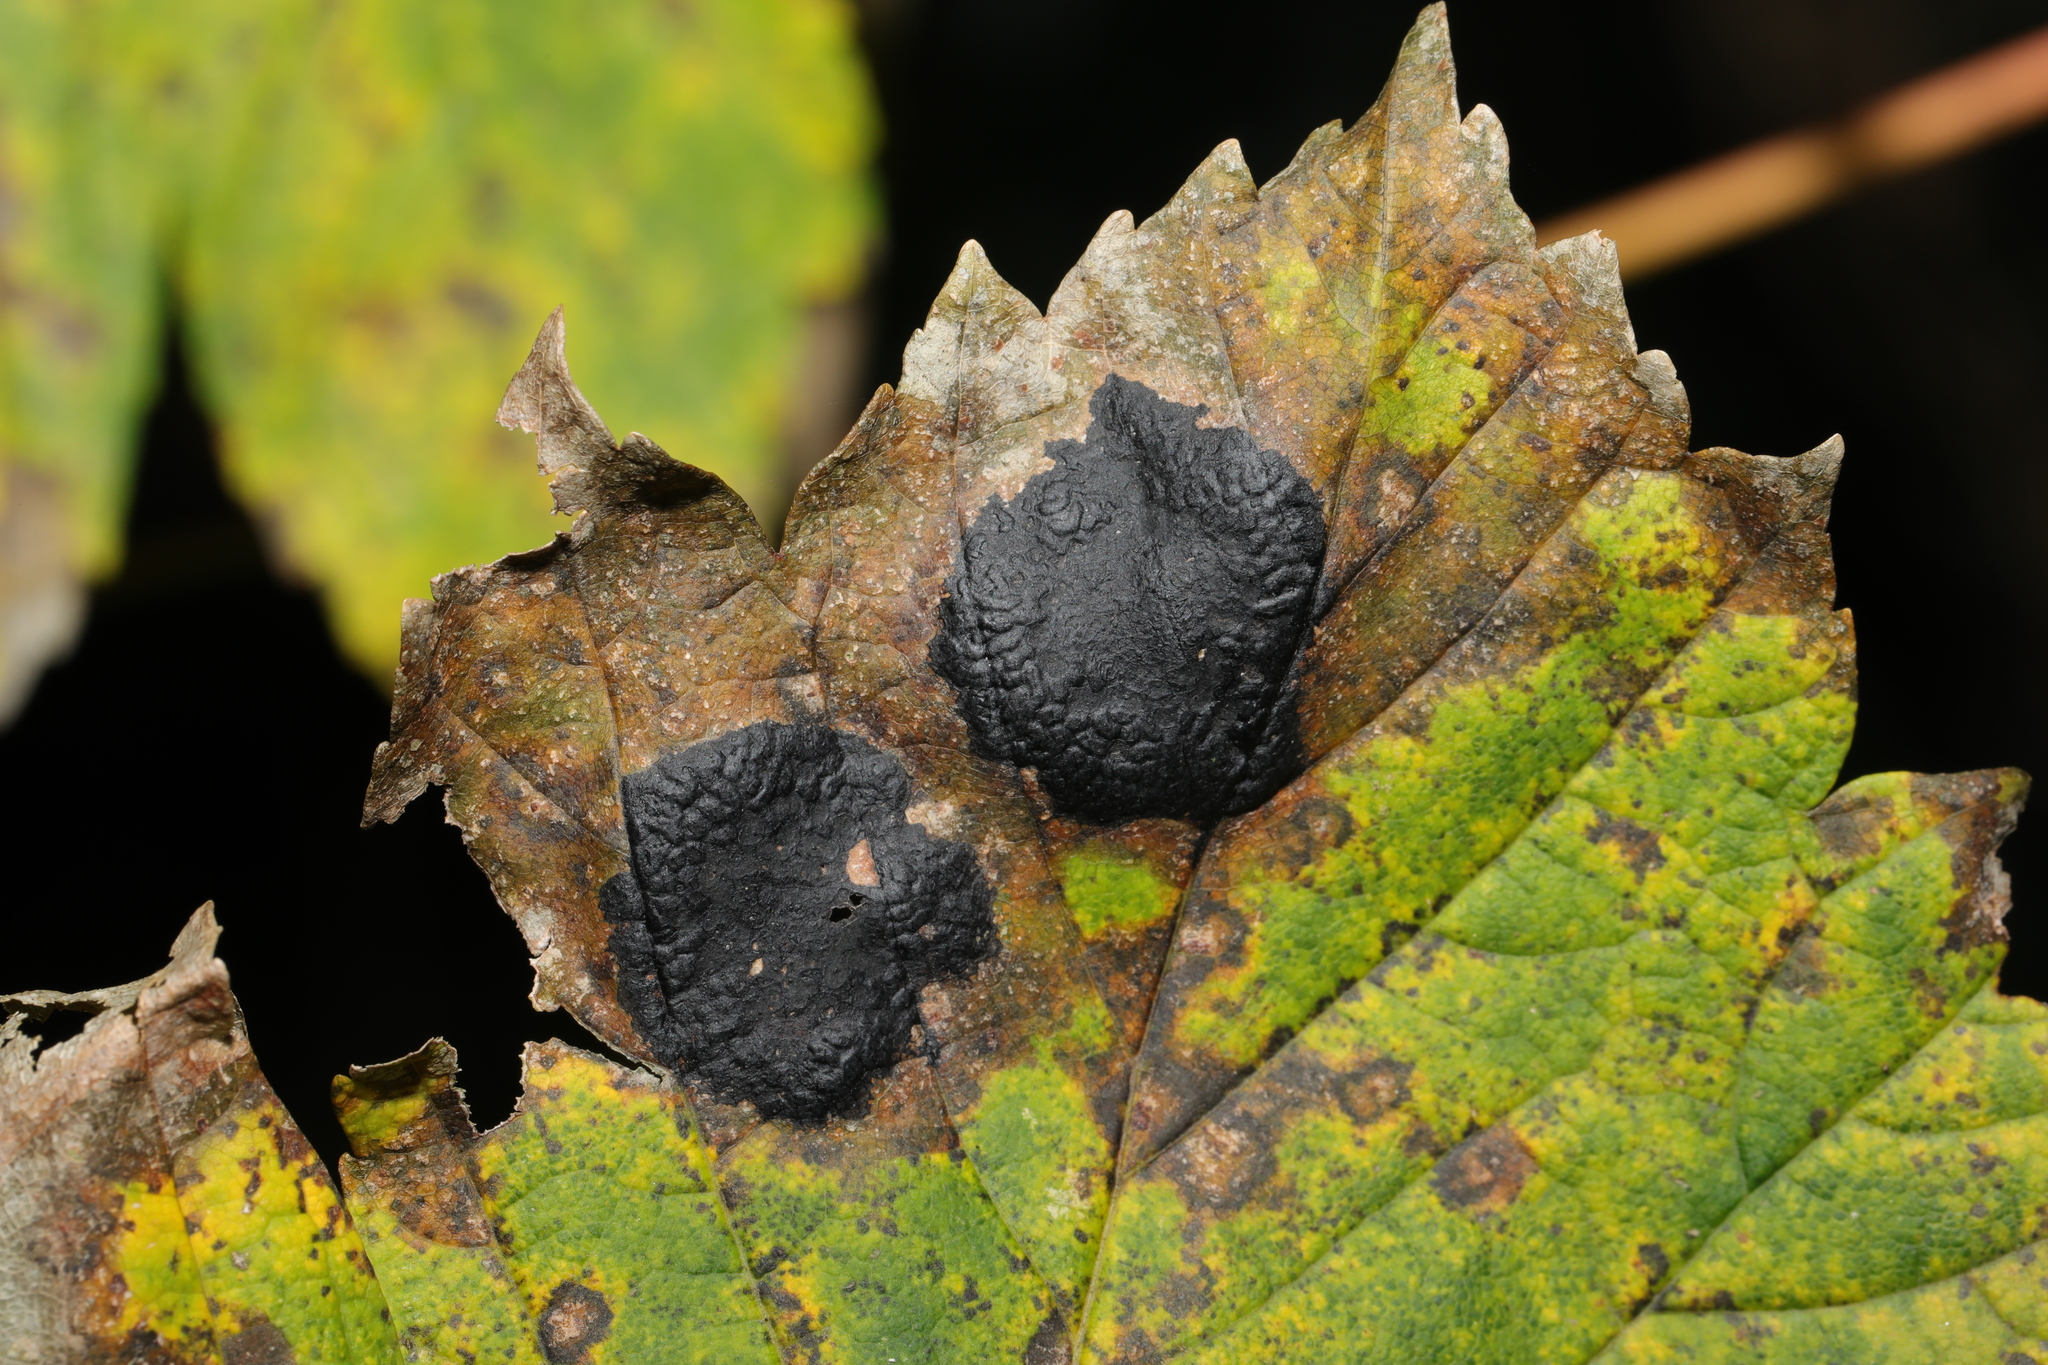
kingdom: Fungi
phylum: Ascomycota
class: Leotiomycetes
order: Rhytismatales
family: Rhytismataceae
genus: Rhytisma
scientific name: Rhytisma acerinum
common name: European tar spot
